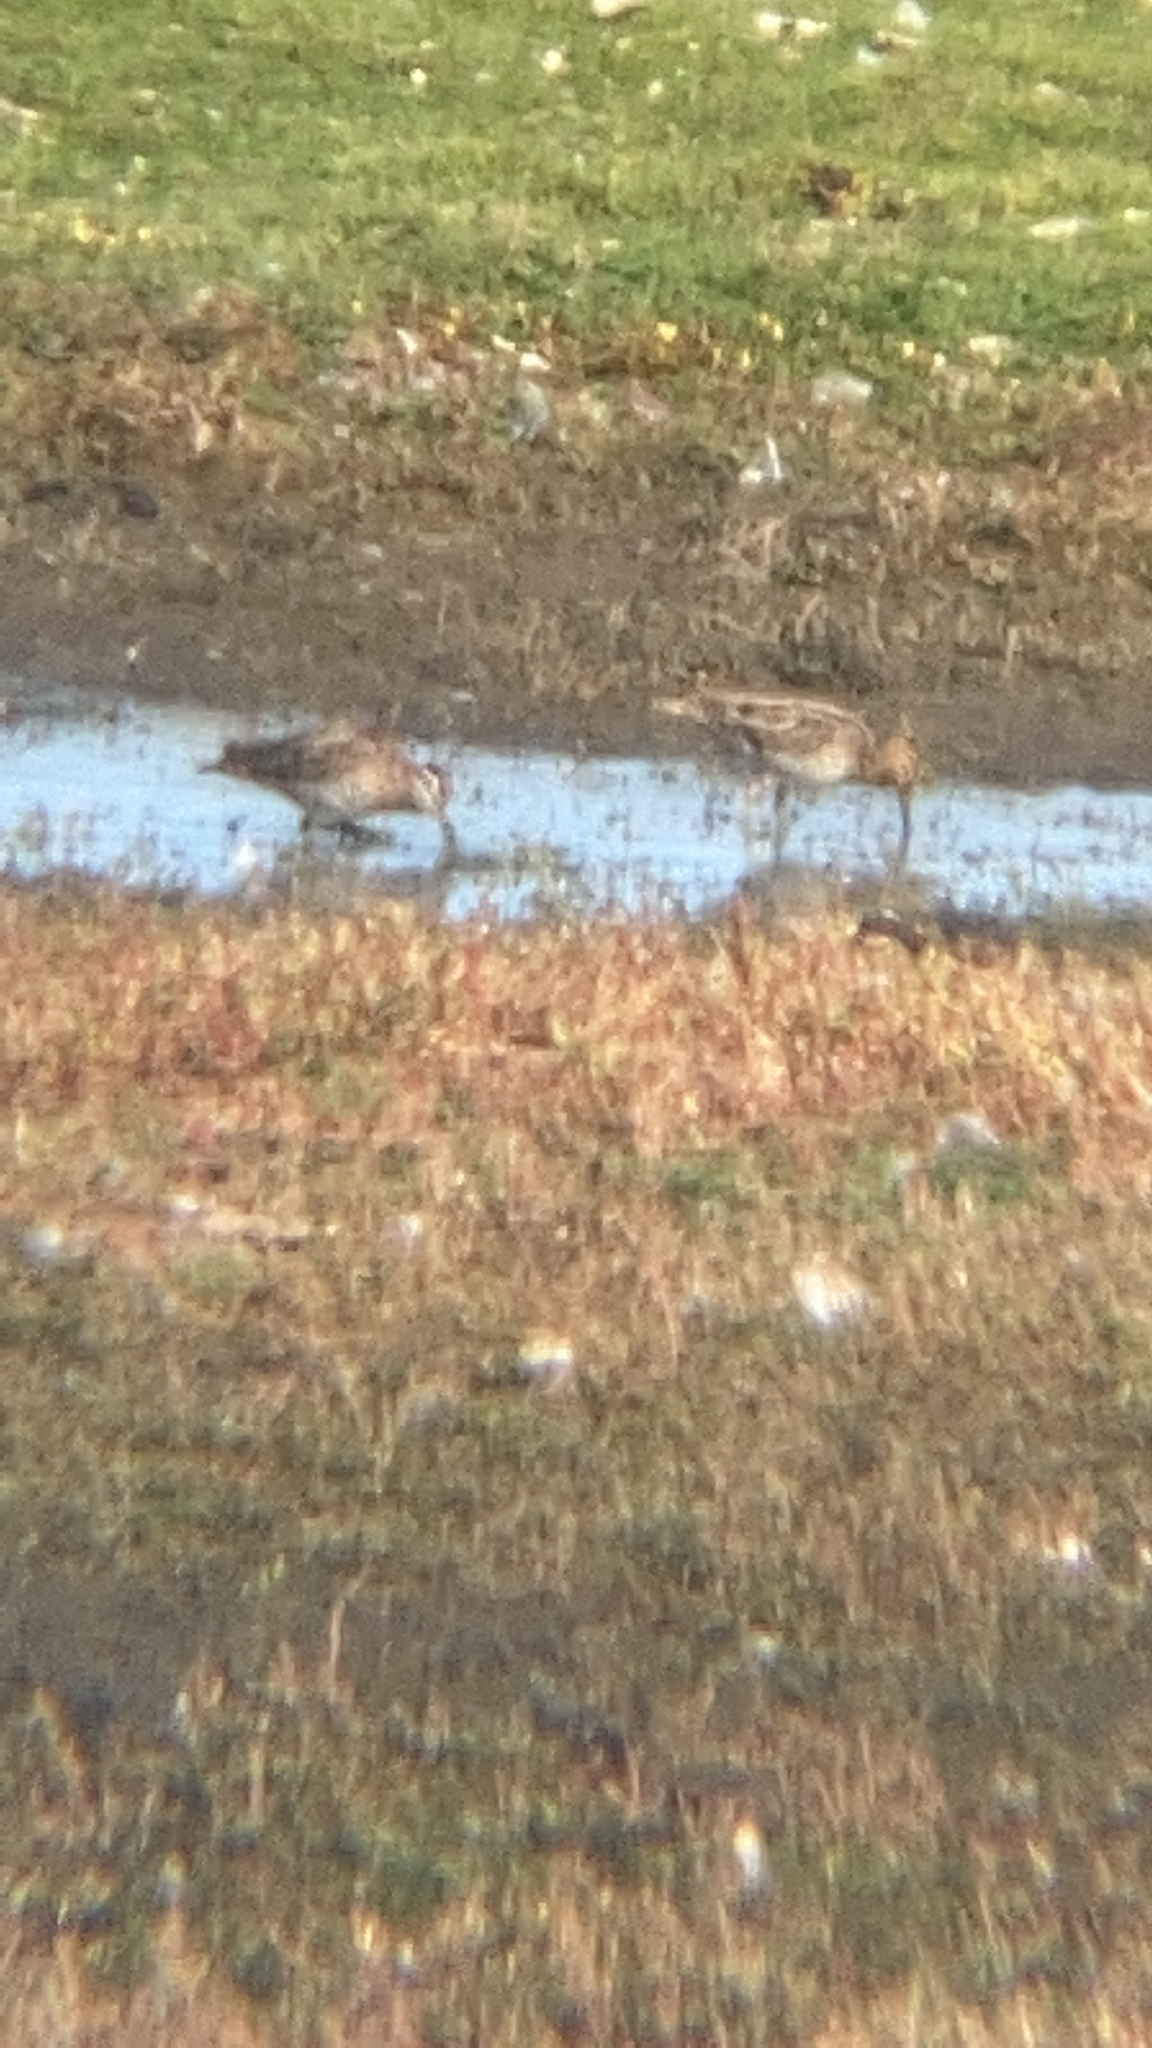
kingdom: Animalia
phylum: Chordata
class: Aves
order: Charadriiformes
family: Scolopacidae
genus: Gallinago
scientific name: Gallinago gallinago
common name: Common snipe
